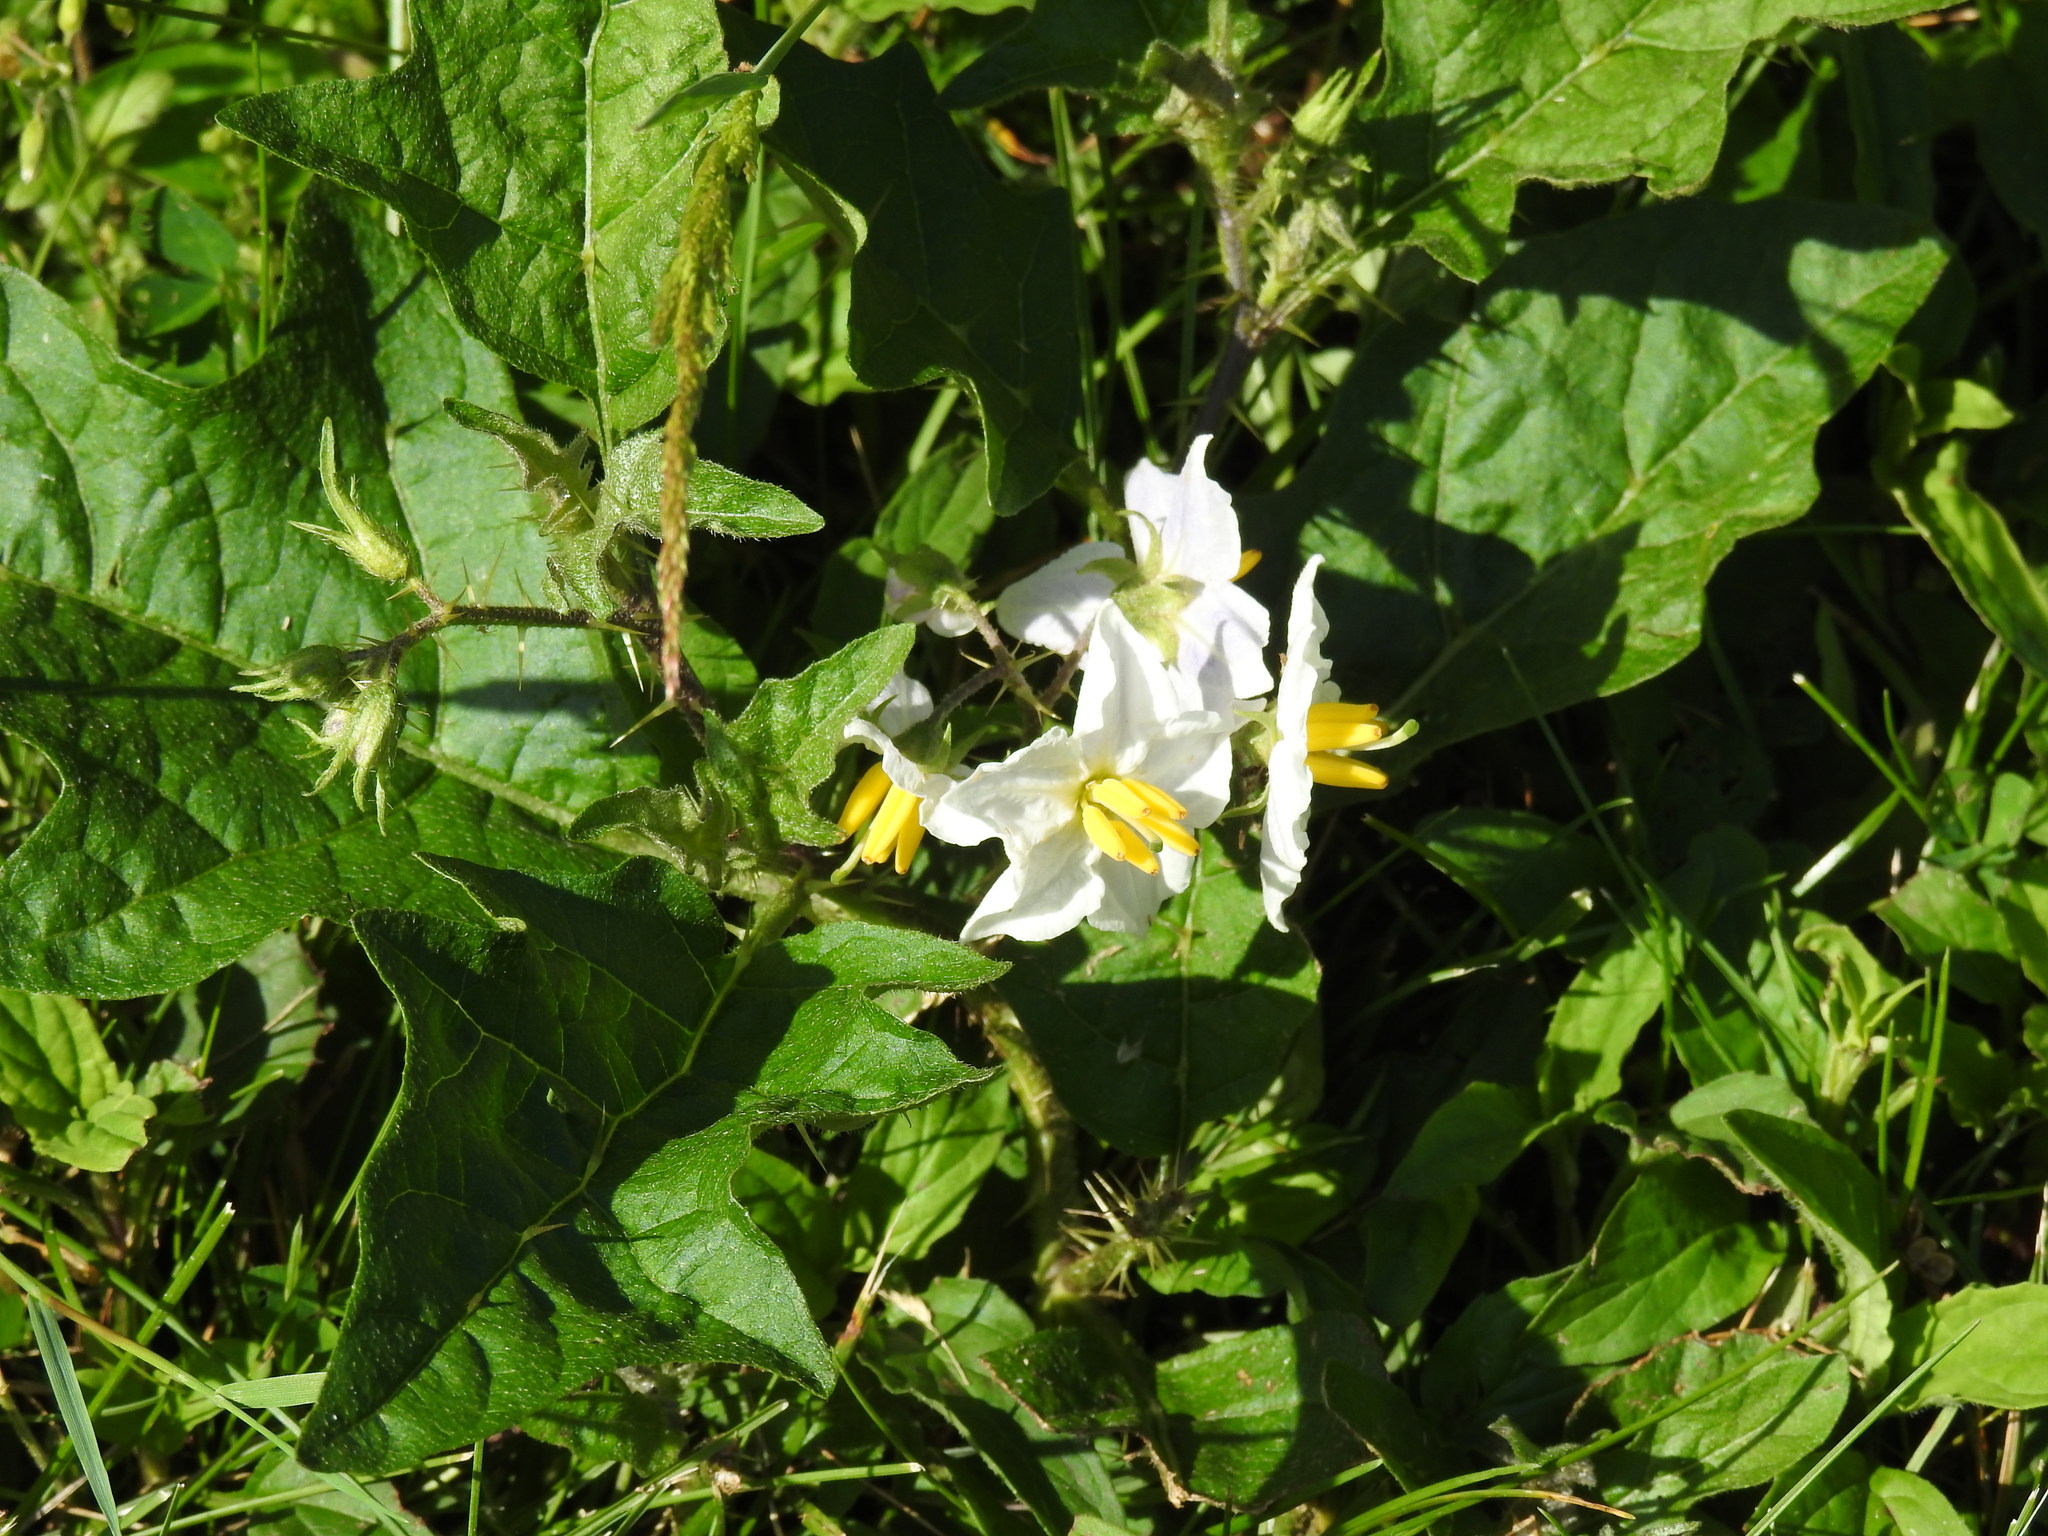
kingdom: Plantae
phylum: Tracheophyta
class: Magnoliopsida
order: Solanales
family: Solanaceae
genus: Solanum
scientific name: Solanum carolinense
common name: Horse-nettle
